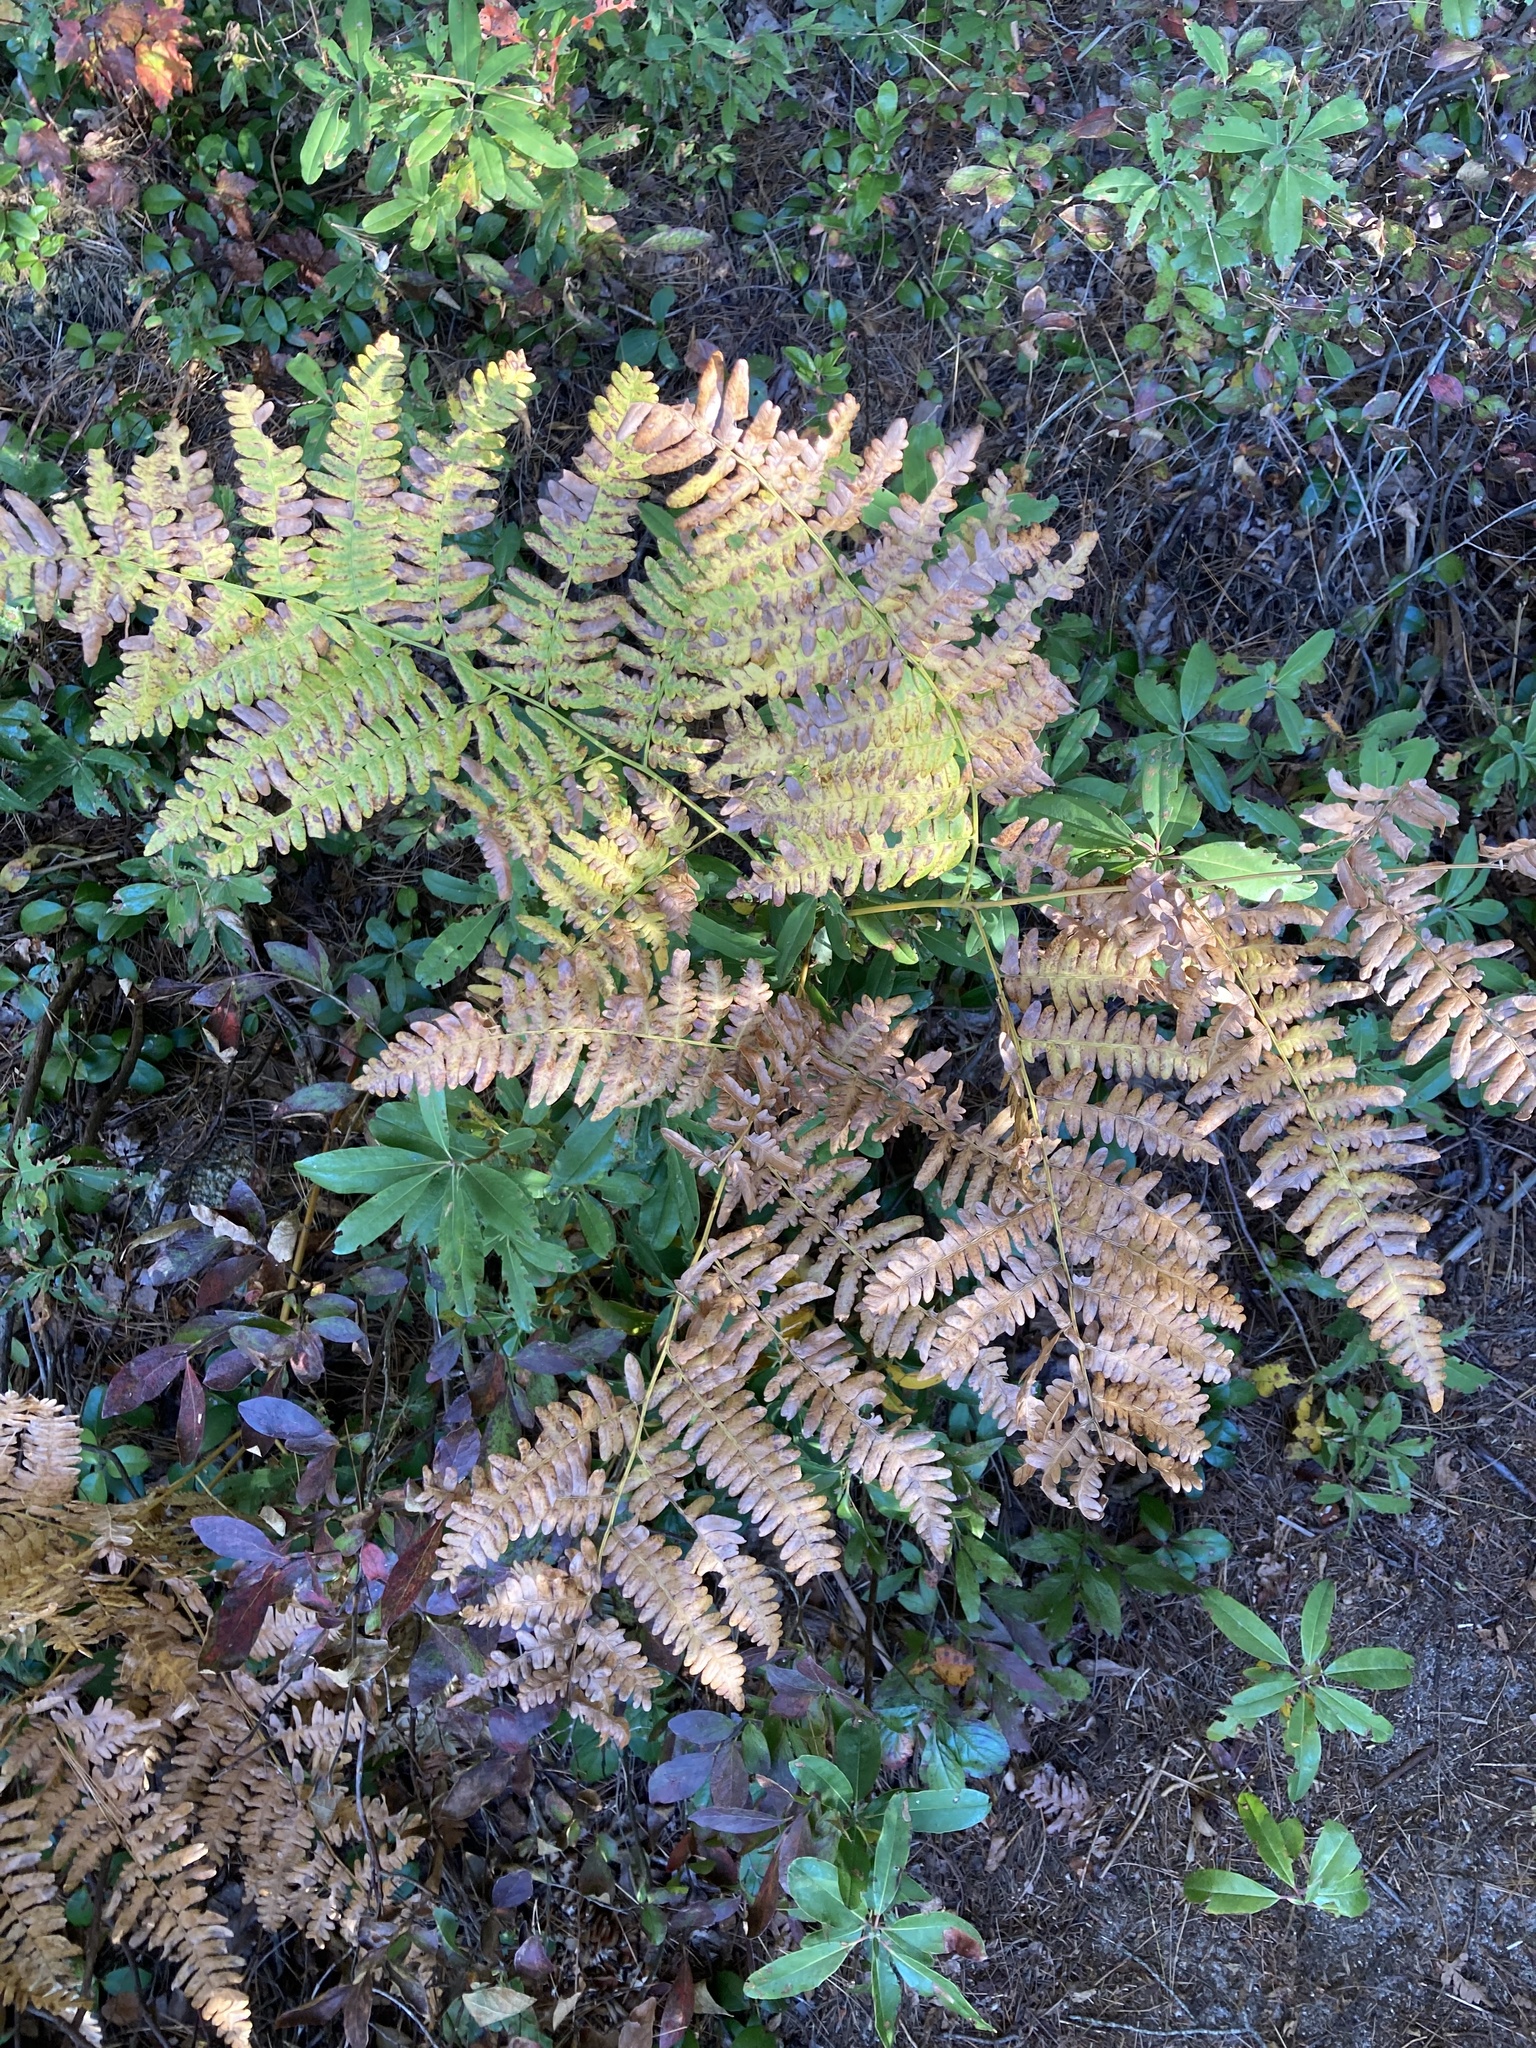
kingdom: Plantae
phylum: Tracheophyta
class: Polypodiopsida
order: Polypodiales
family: Dennstaedtiaceae
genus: Pteridium
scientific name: Pteridium aquilinum
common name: Bracken
